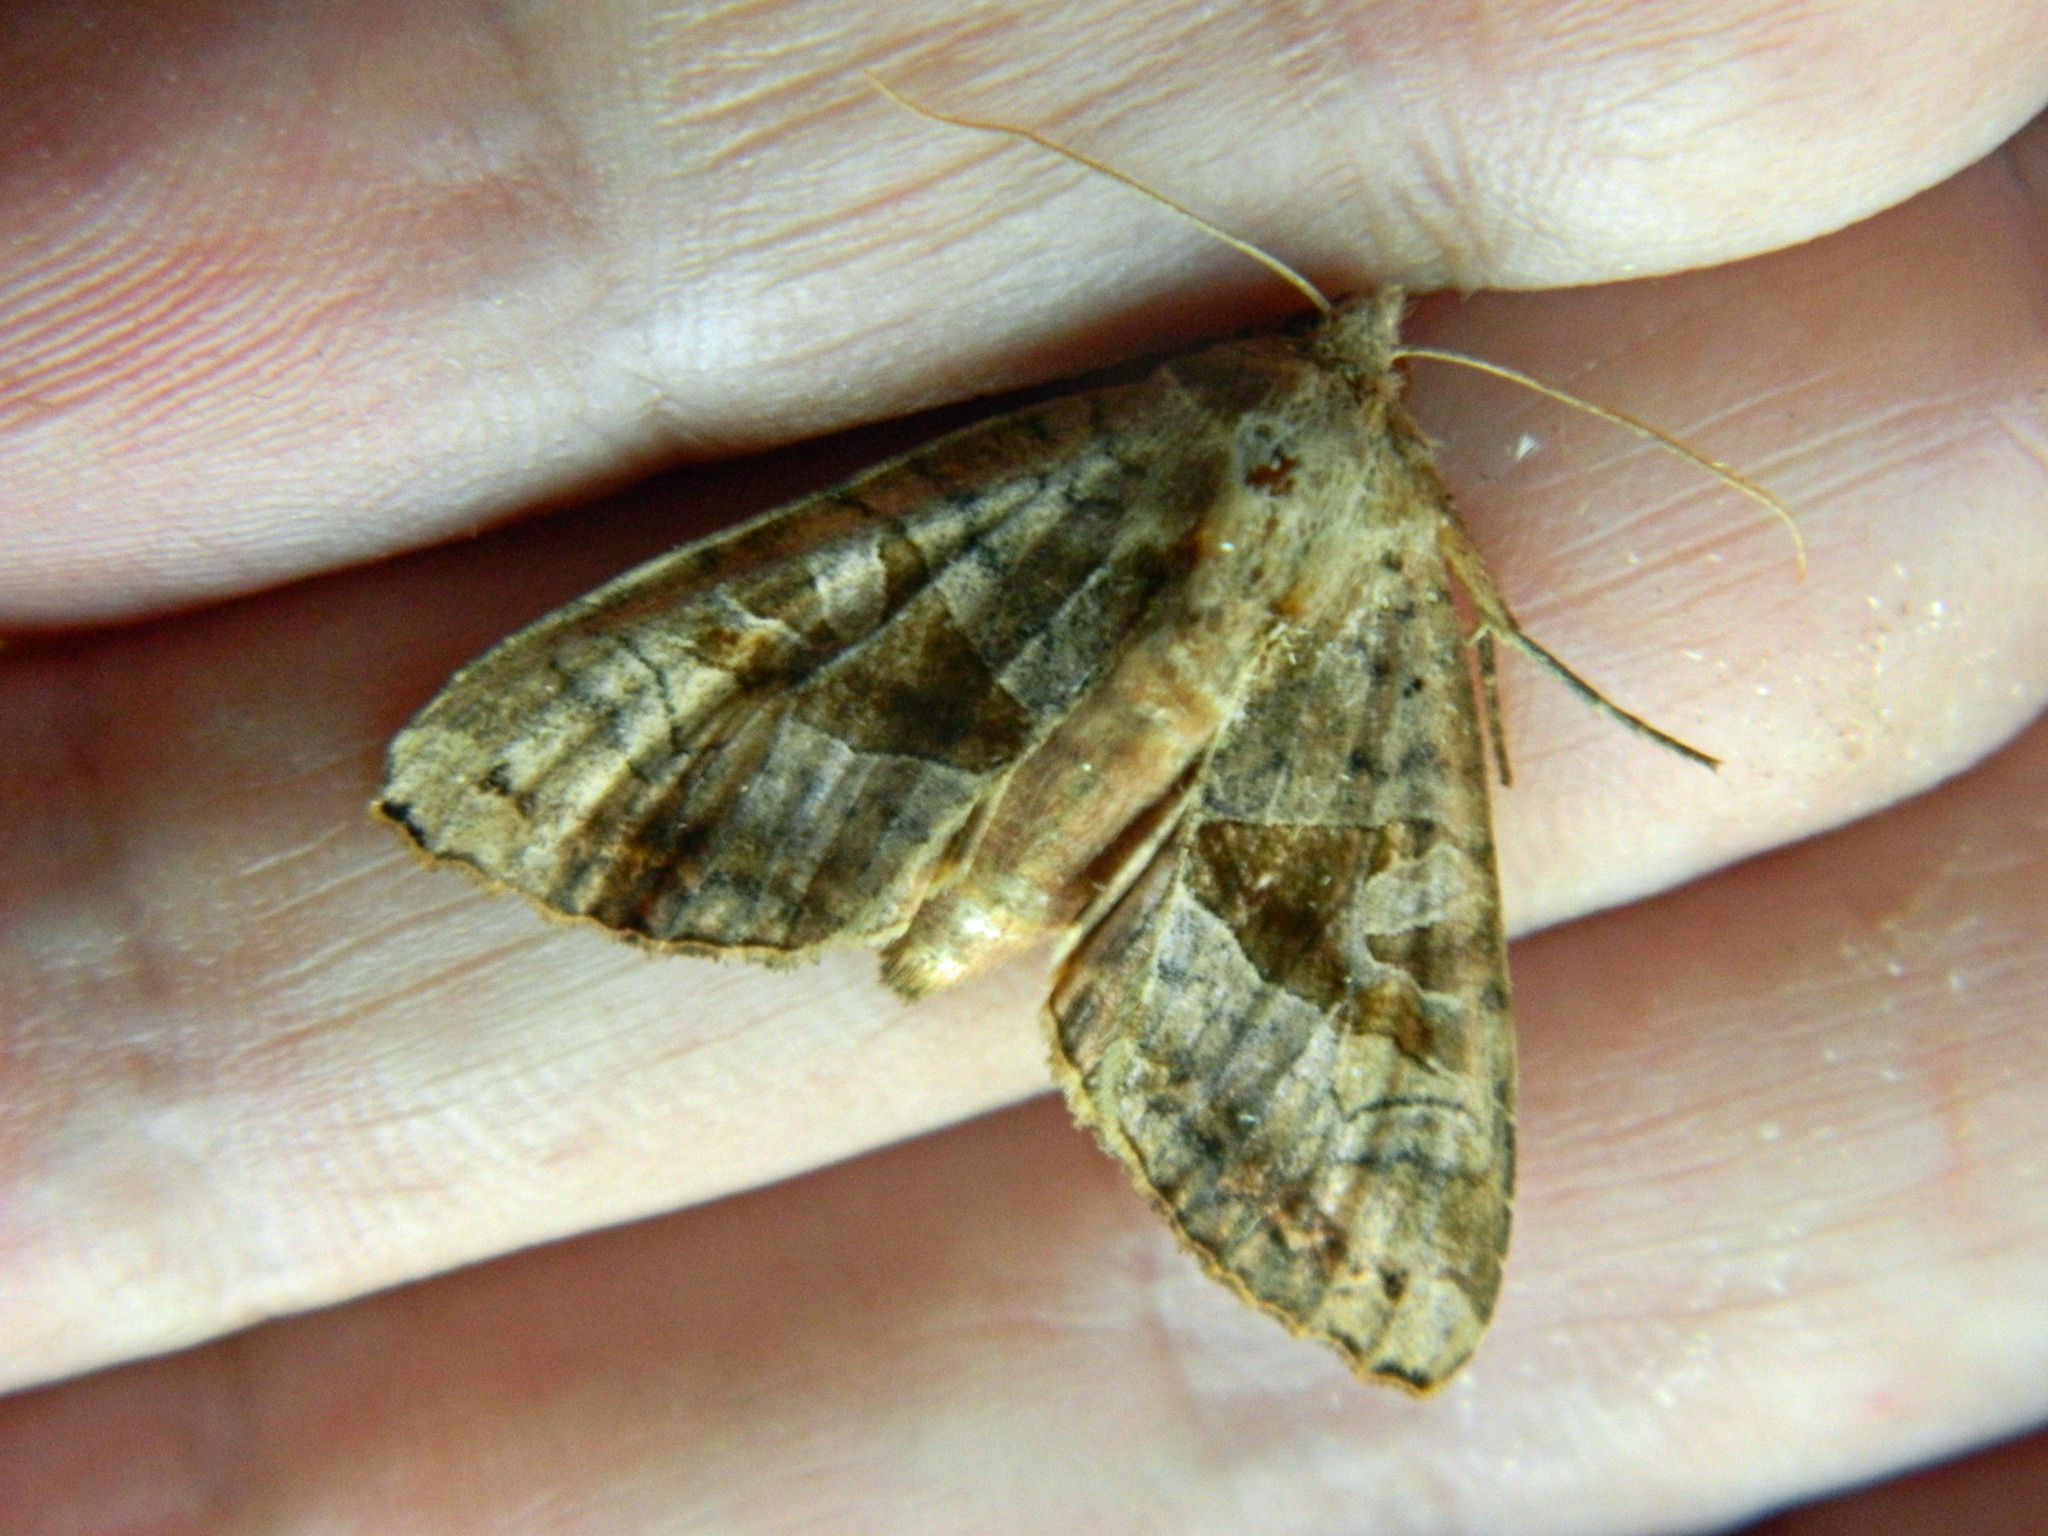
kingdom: Animalia
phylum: Arthropoda
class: Insecta
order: Lepidoptera
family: Noctuidae
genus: Phlogophora
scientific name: Phlogophora periculosa
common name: Brown angle shades
